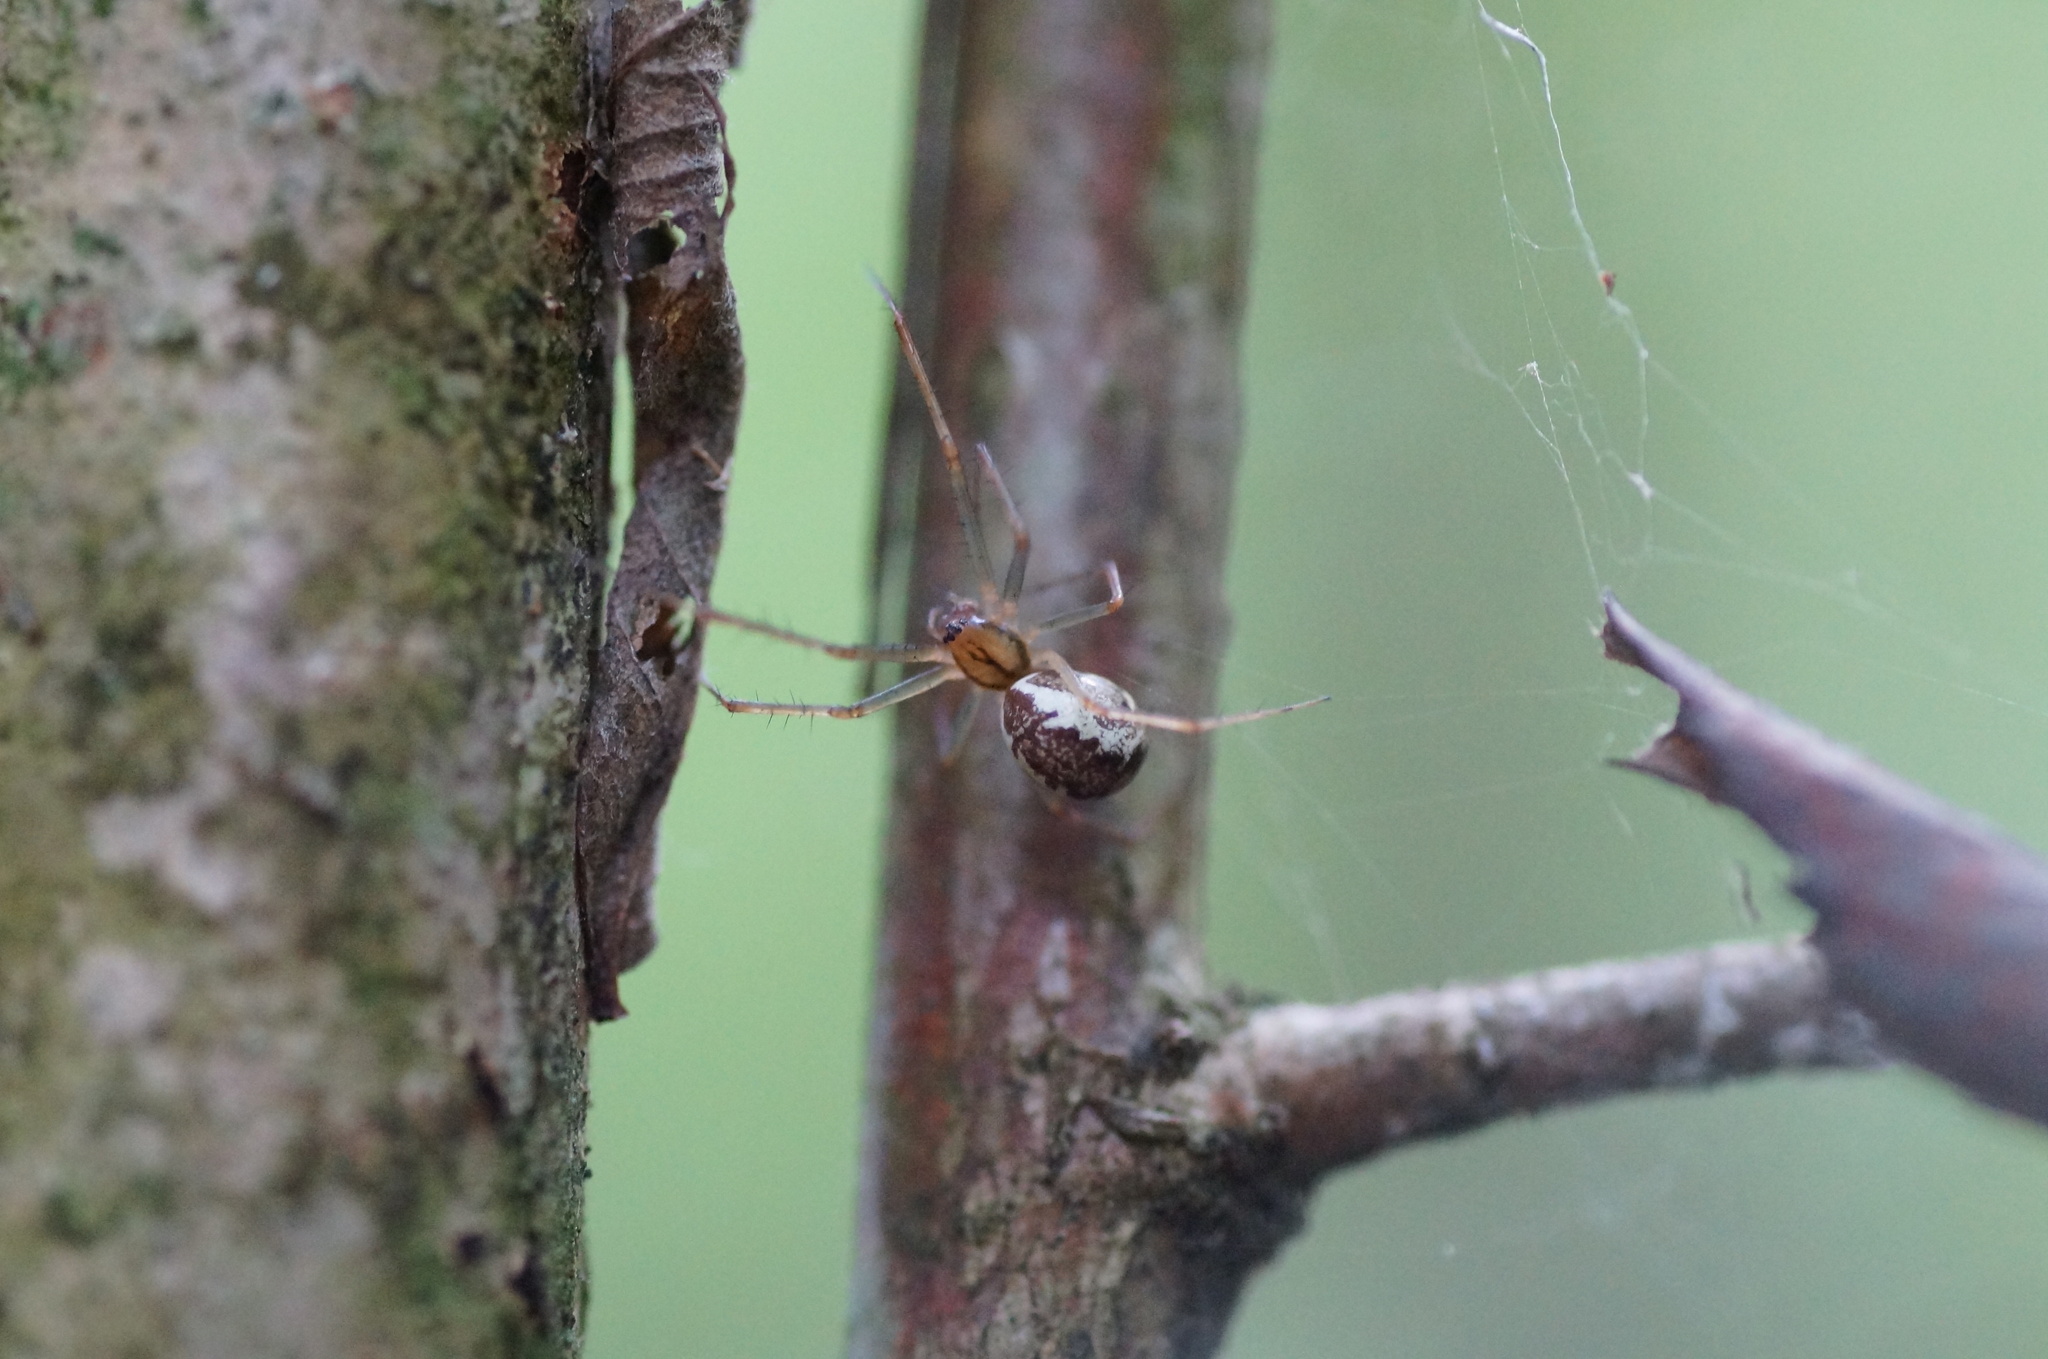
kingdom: Animalia
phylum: Arthropoda
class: Arachnida
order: Araneae
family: Linyphiidae
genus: Linyphia
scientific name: Linyphia triangularis
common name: Money spider
